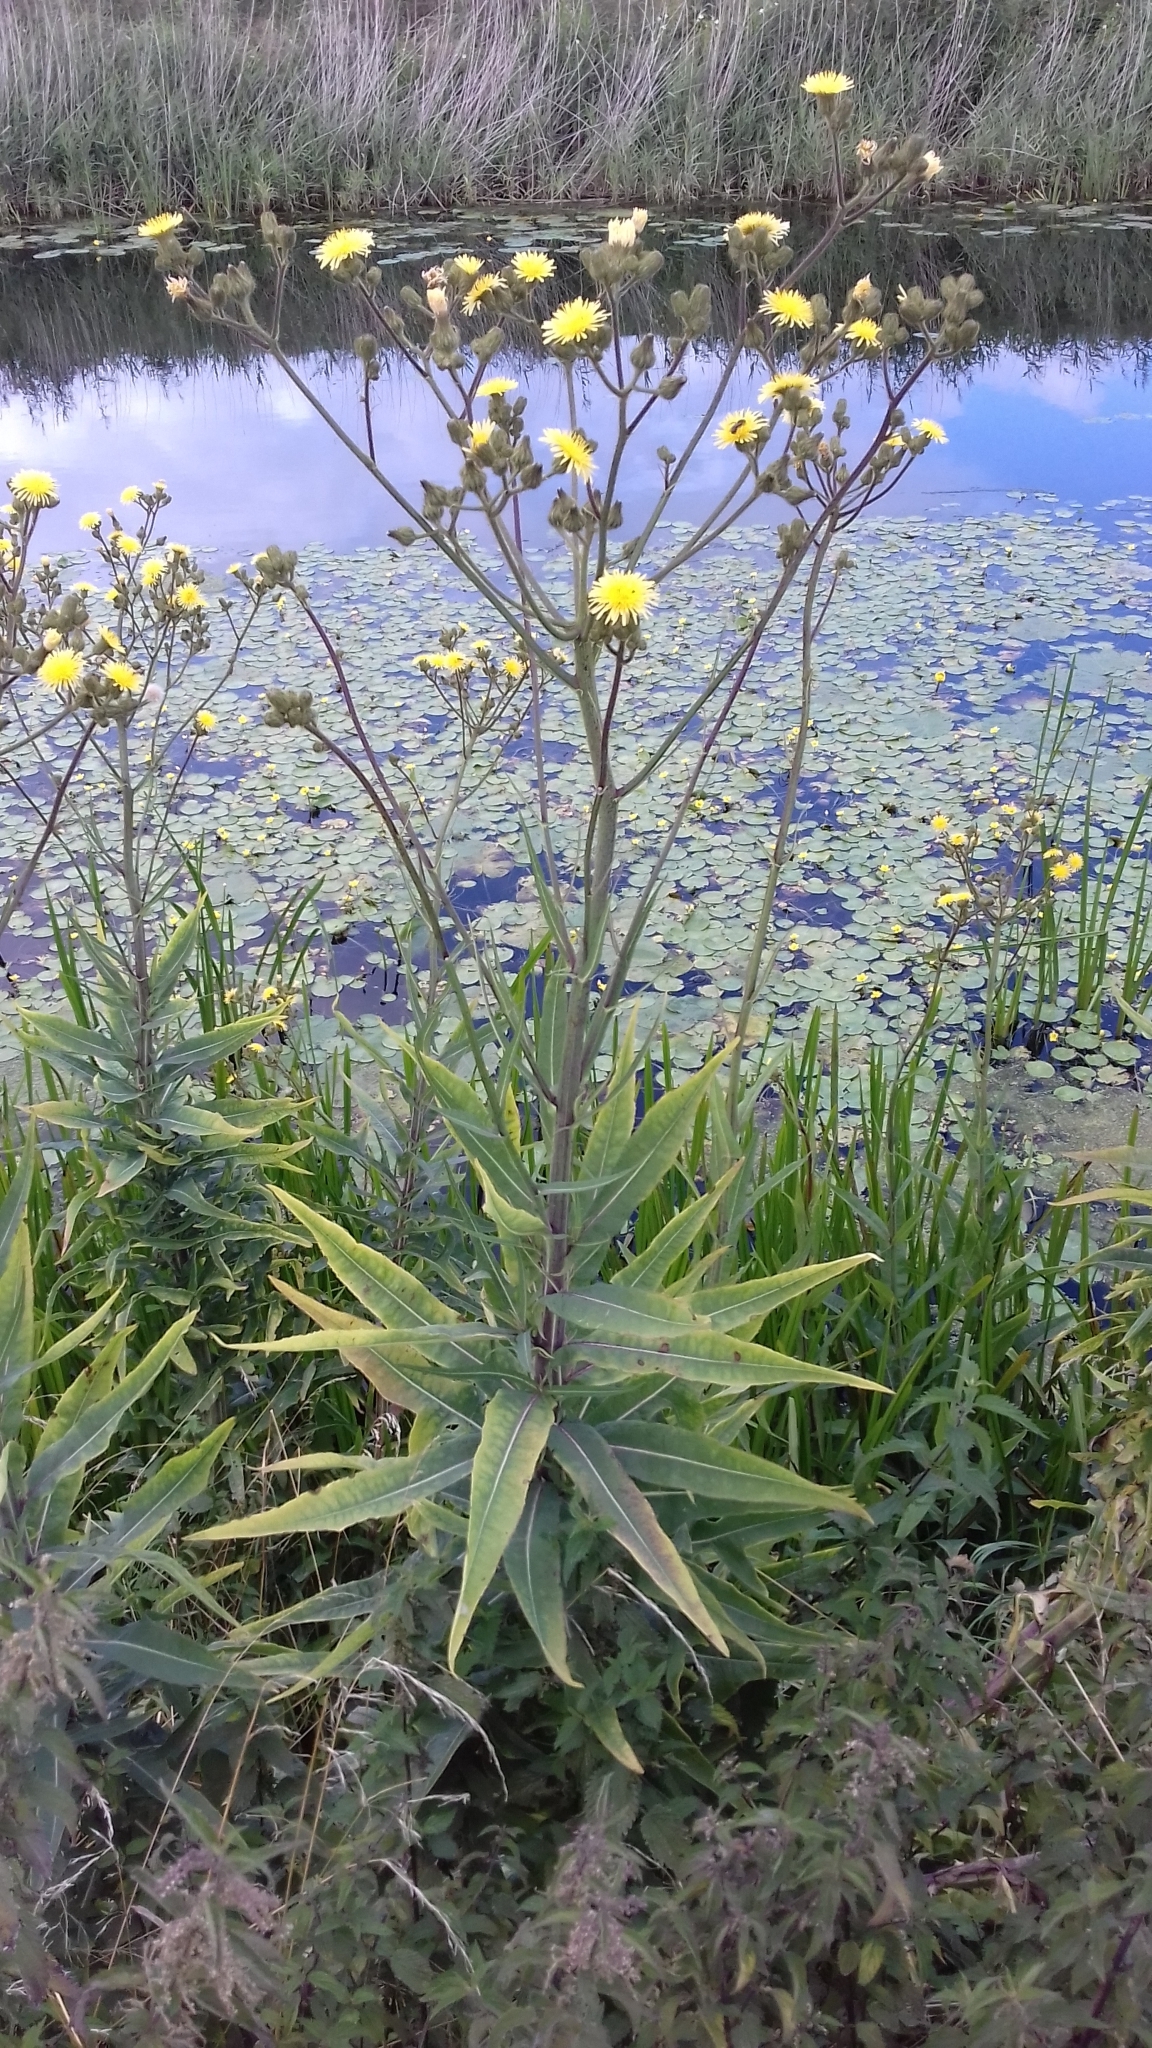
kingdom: Plantae
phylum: Tracheophyta
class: Magnoliopsida
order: Asterales
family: Asteraceae
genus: Sonchus
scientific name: Sonchus palustris
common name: Marsh sow-thistle
